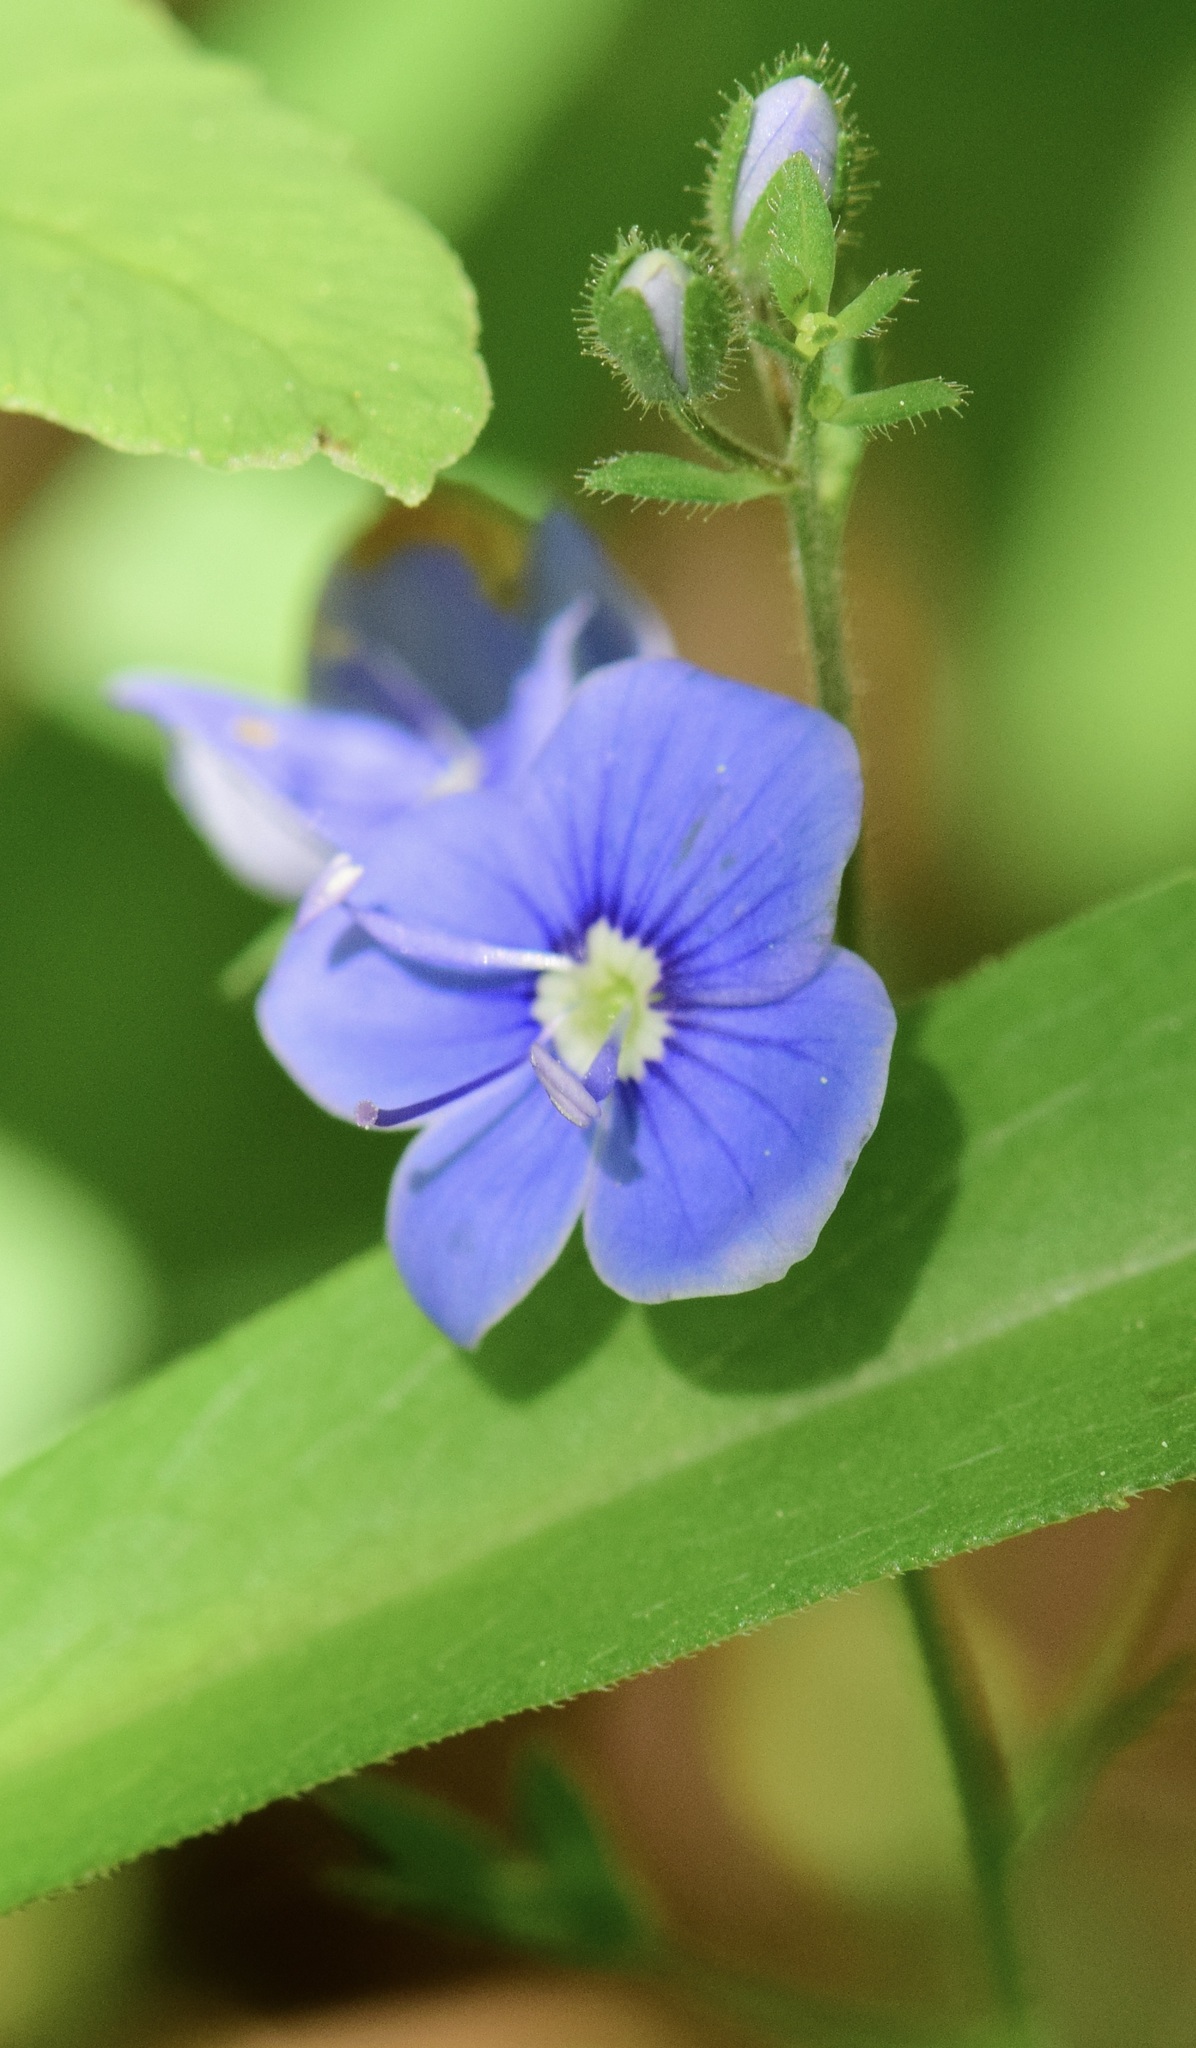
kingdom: Plantae
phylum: Tracheophyta
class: Magnoliopsida
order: Lamiales
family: Plantaginaceae
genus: Veronica
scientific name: Veronica chamaedrys
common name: Germander speedwell
